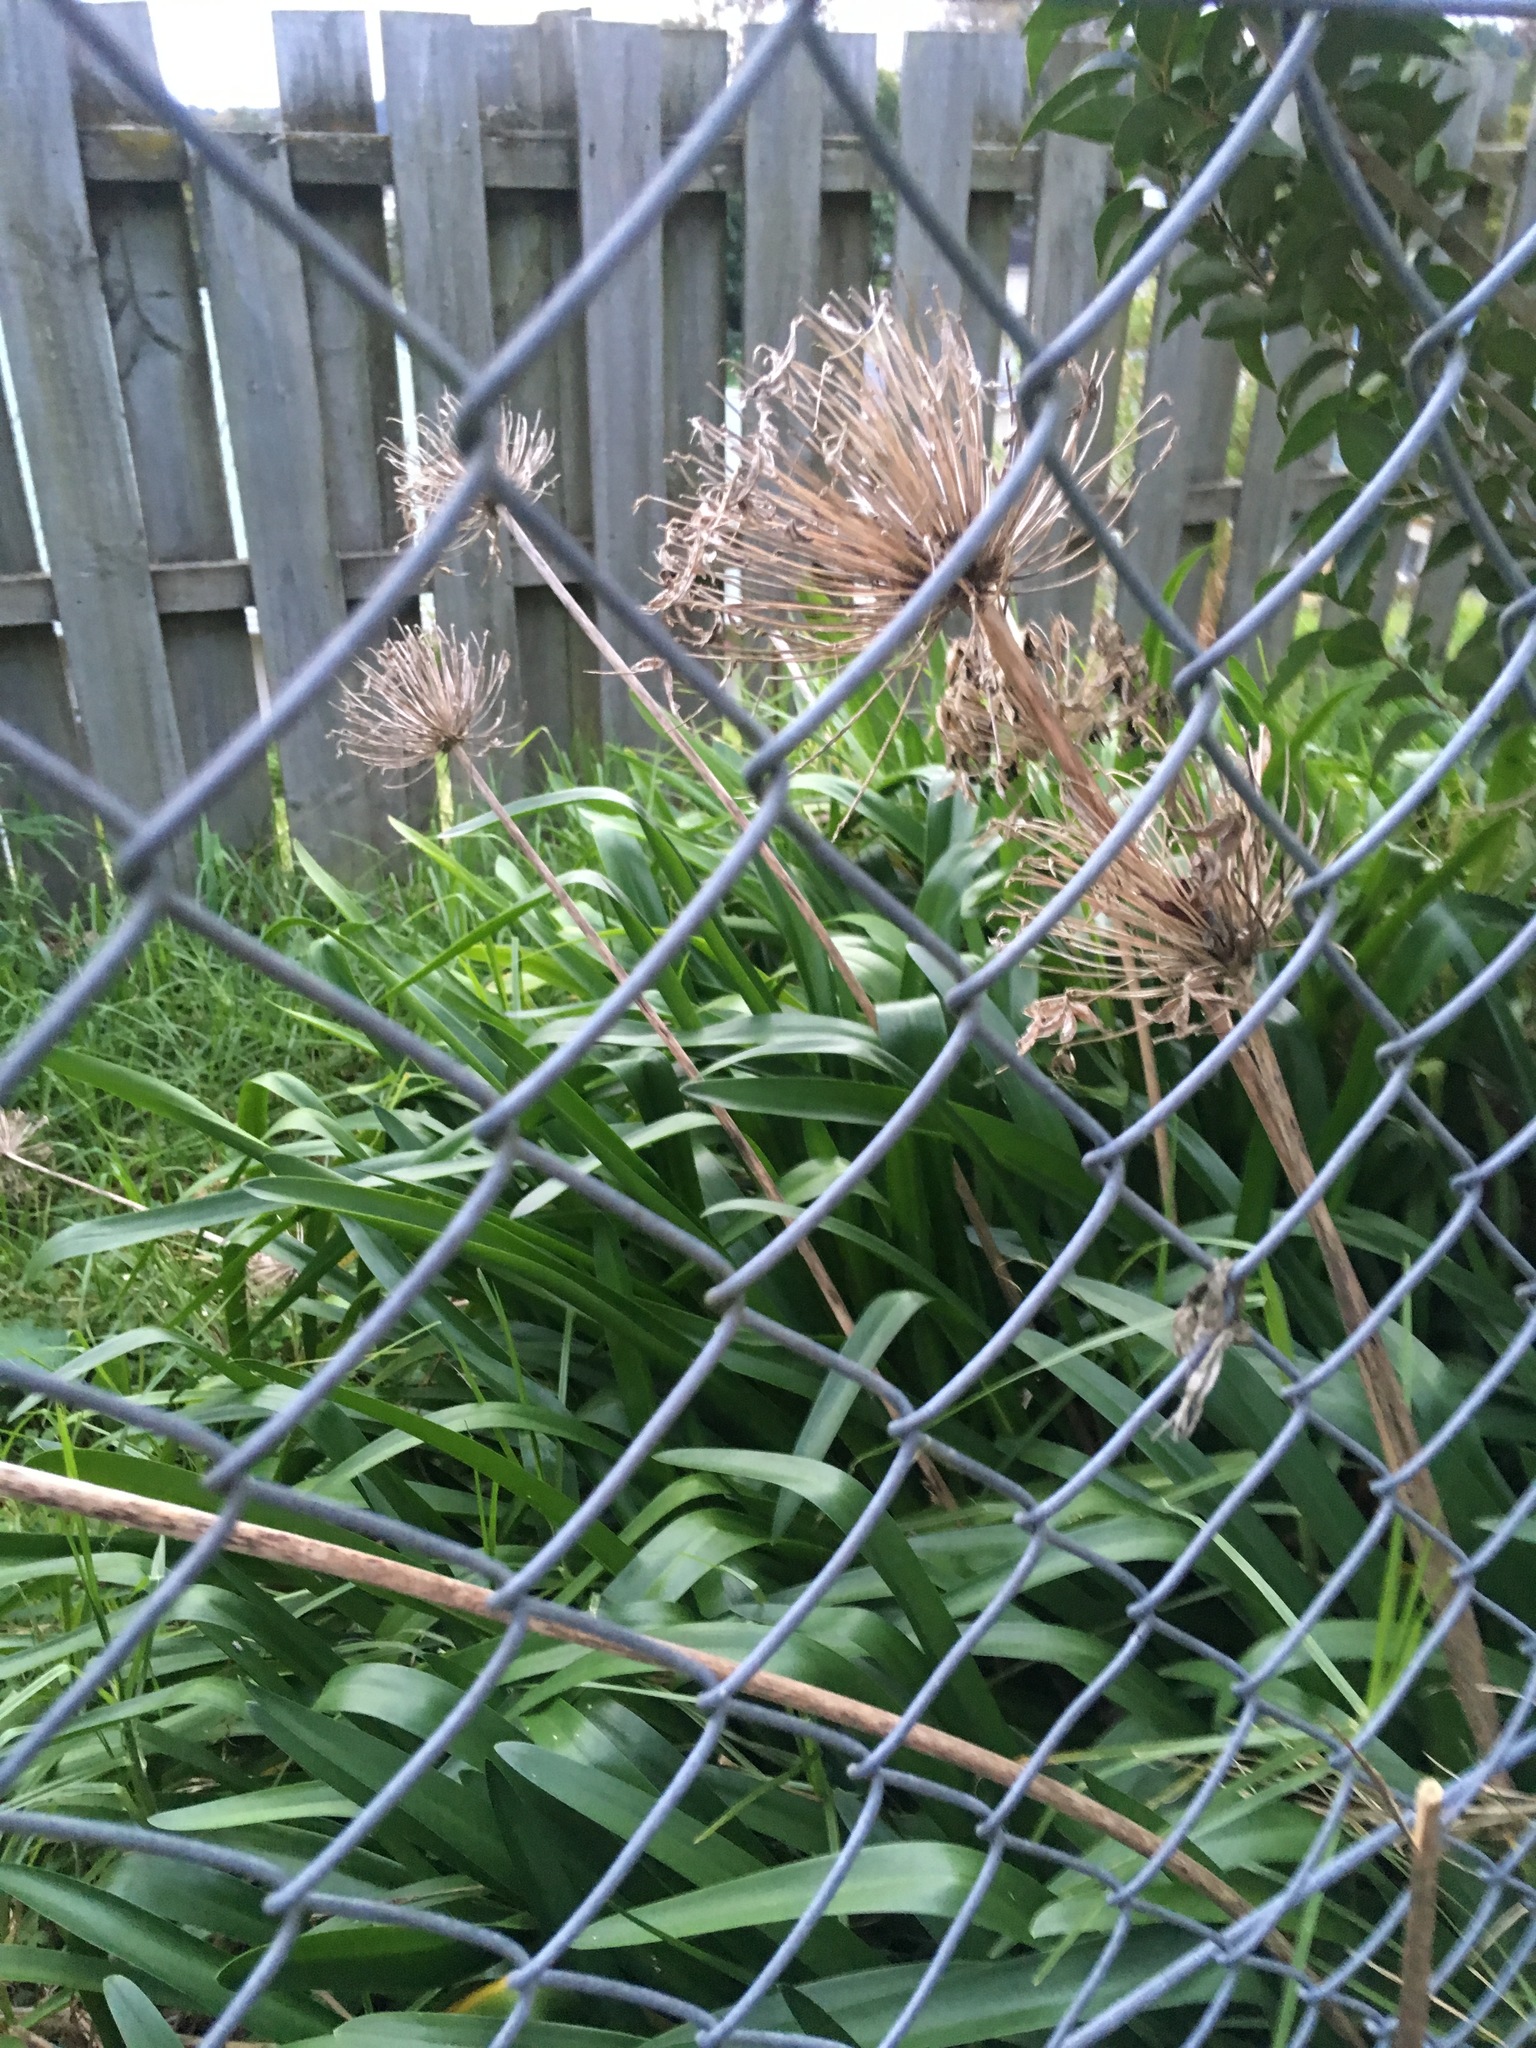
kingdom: Plantae
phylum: Tracheophyta
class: Liliopsida
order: Asparagales
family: Amaryllidaceae
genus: Agapanthus
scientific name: Agapanthus praecox
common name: African-lily
